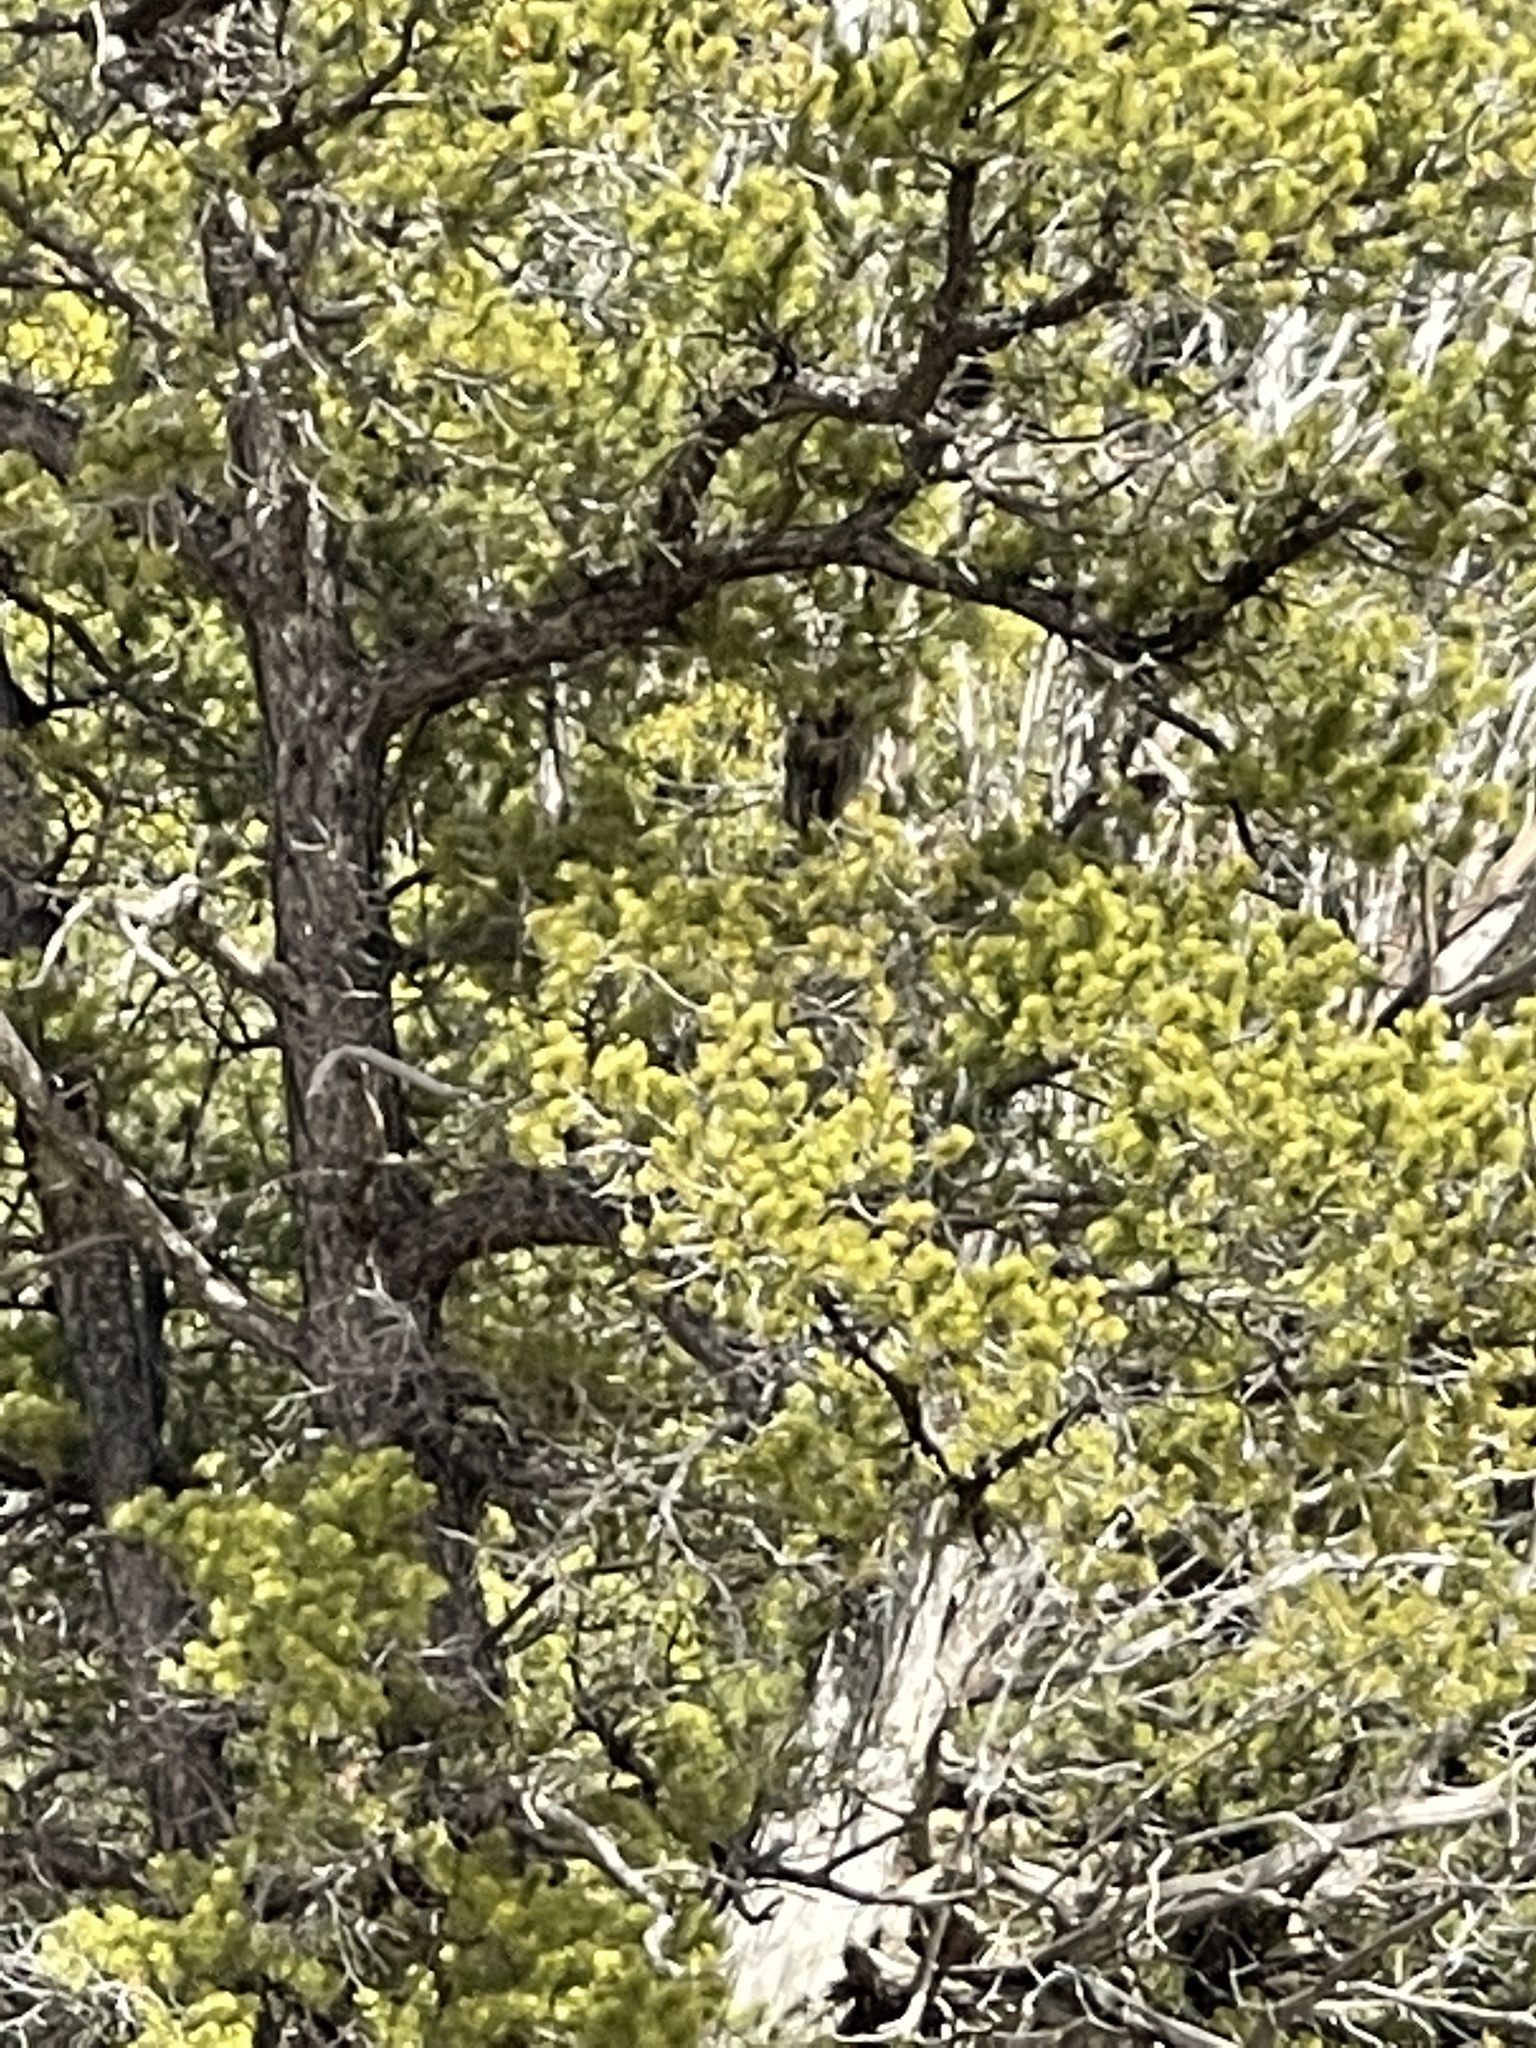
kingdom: Plantae
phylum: Tracheophyta
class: Pinopsida
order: Pinales
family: Pinaceae
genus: Pinus
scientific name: Pinus edulis
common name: Colorado pinyon
